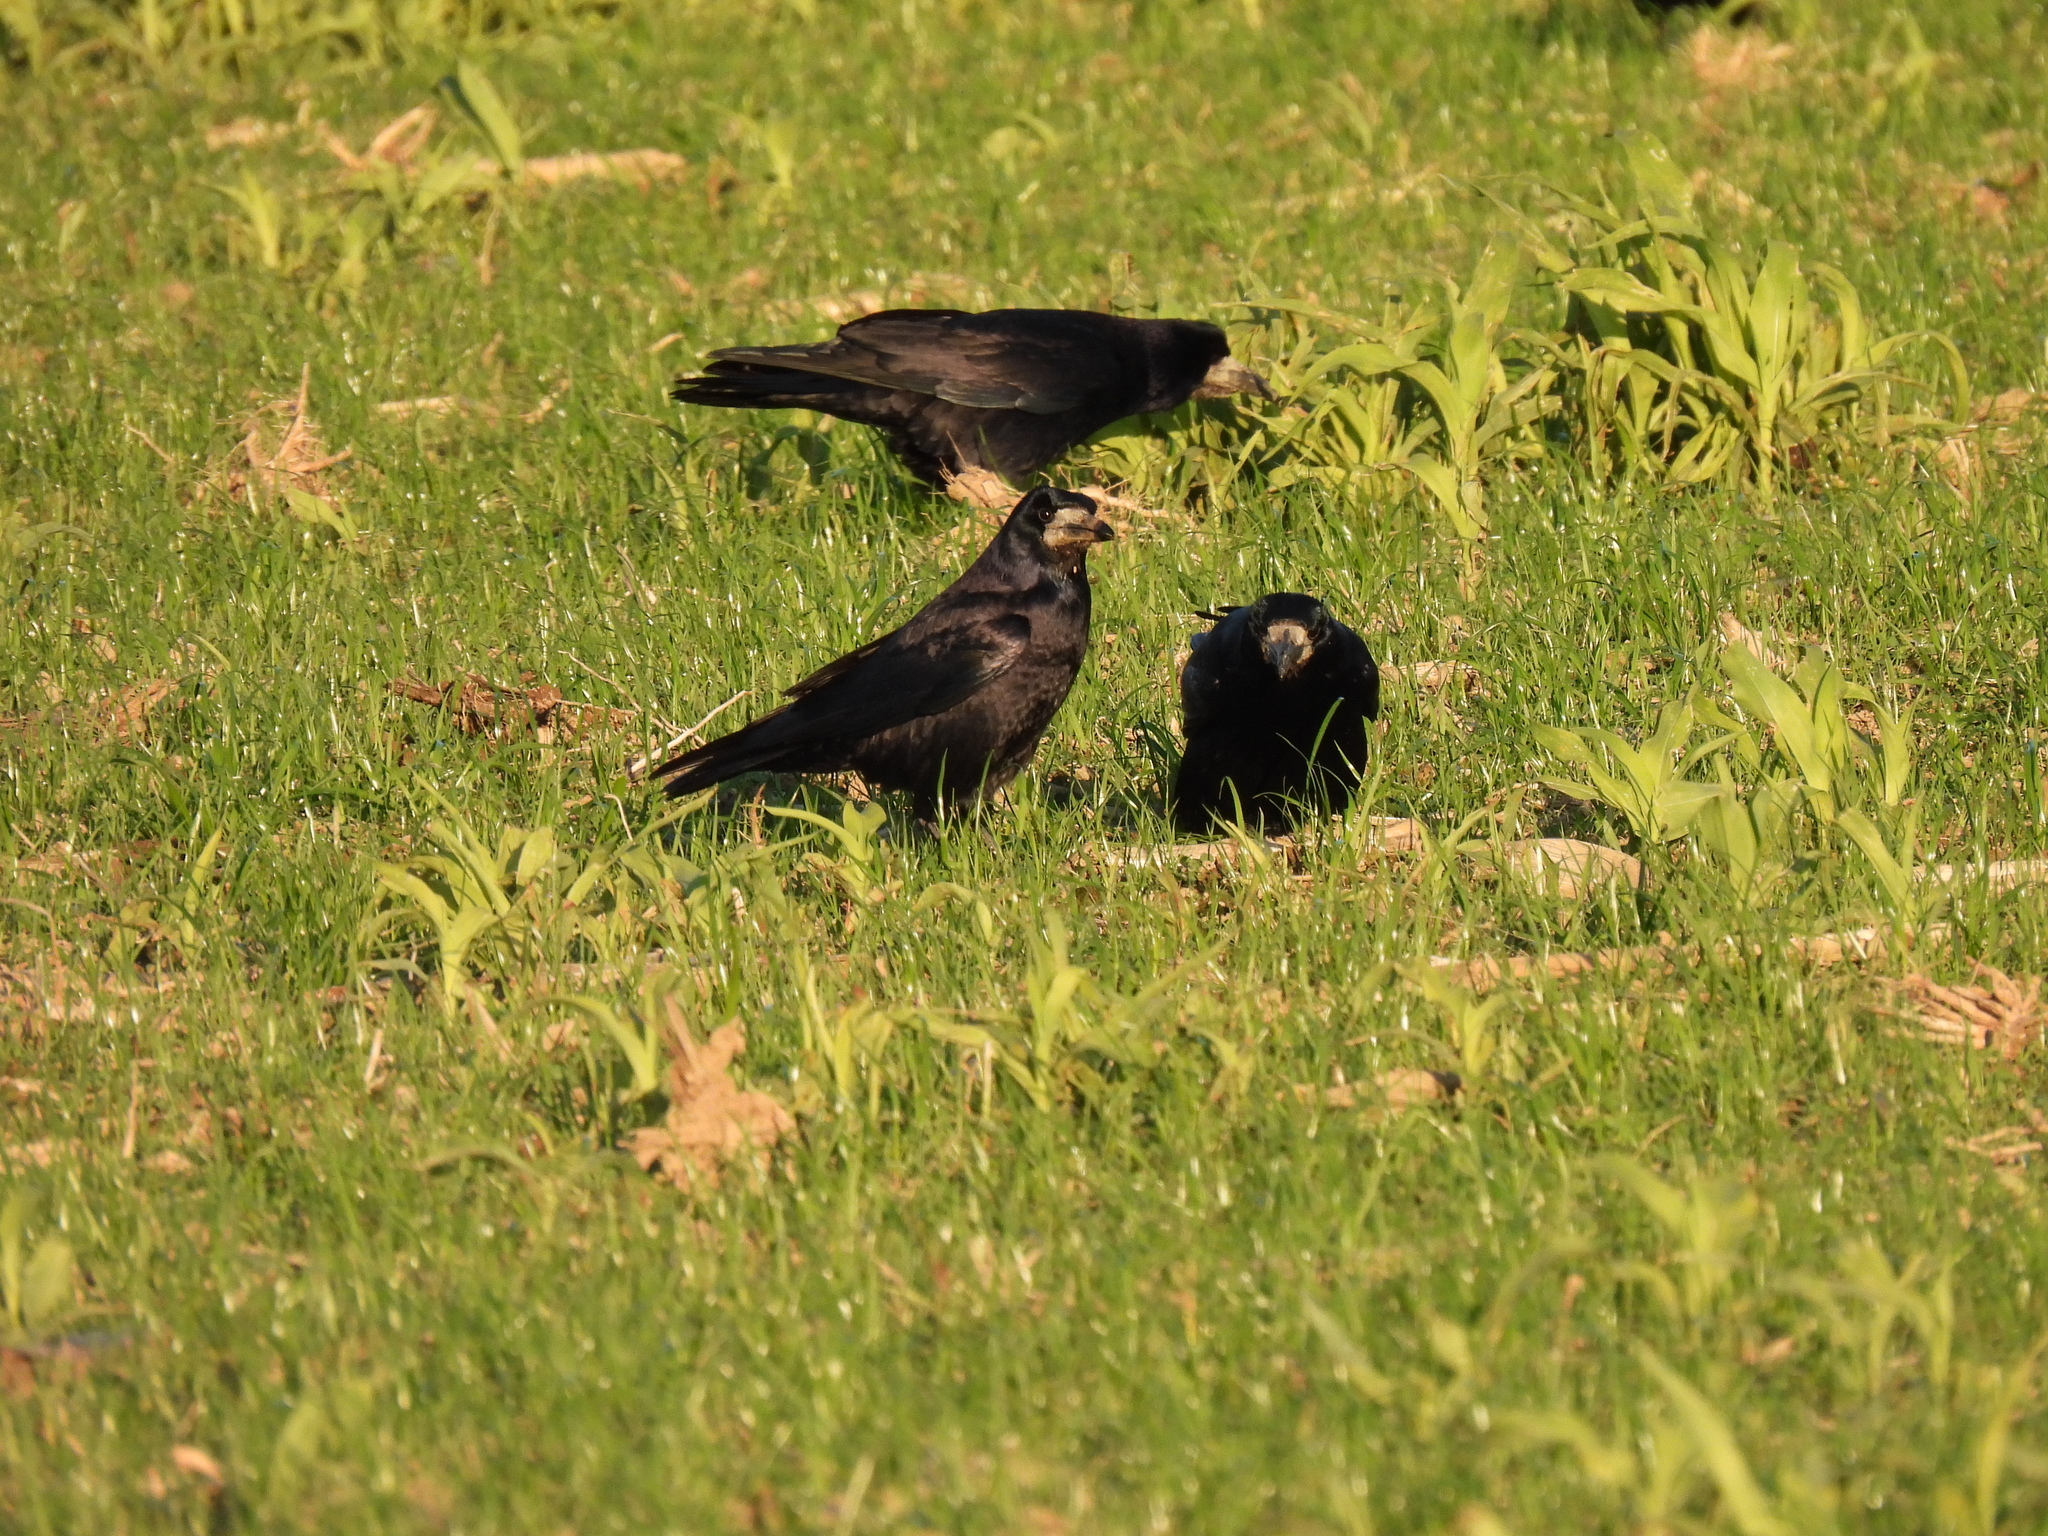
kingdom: Animalia
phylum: Chordata
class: Aves
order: Passeriformes
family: Corvidae
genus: Corvus
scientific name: Corvus frugilegus
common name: Rook
